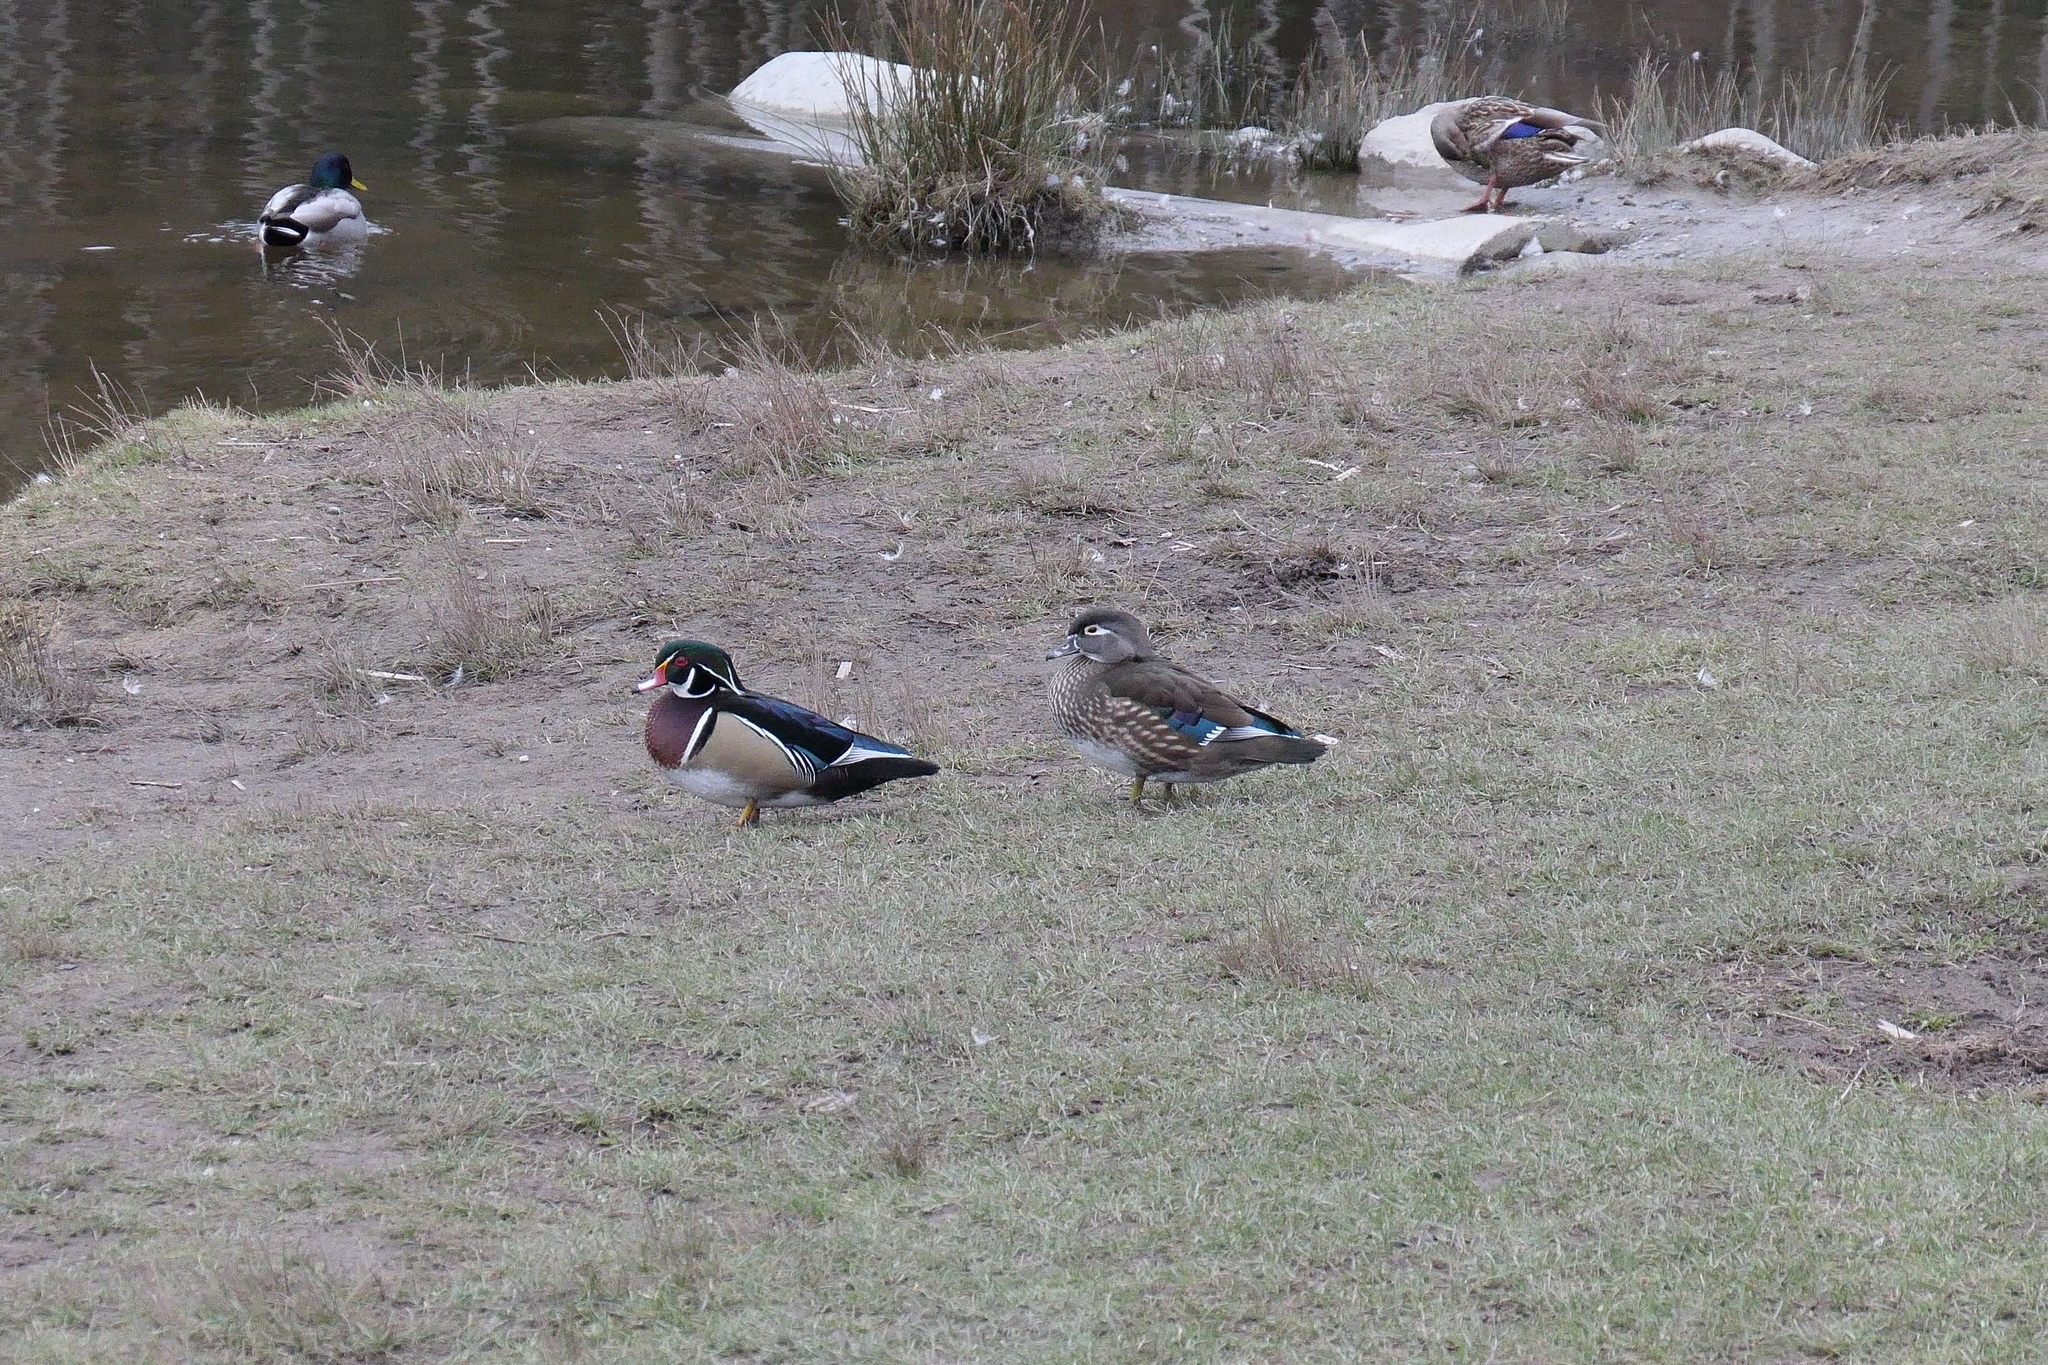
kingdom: Animalia
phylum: Chordata
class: Aves
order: Anseriformes
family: Anatidae
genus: Aix
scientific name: Aix sponsa
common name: Wood duck
